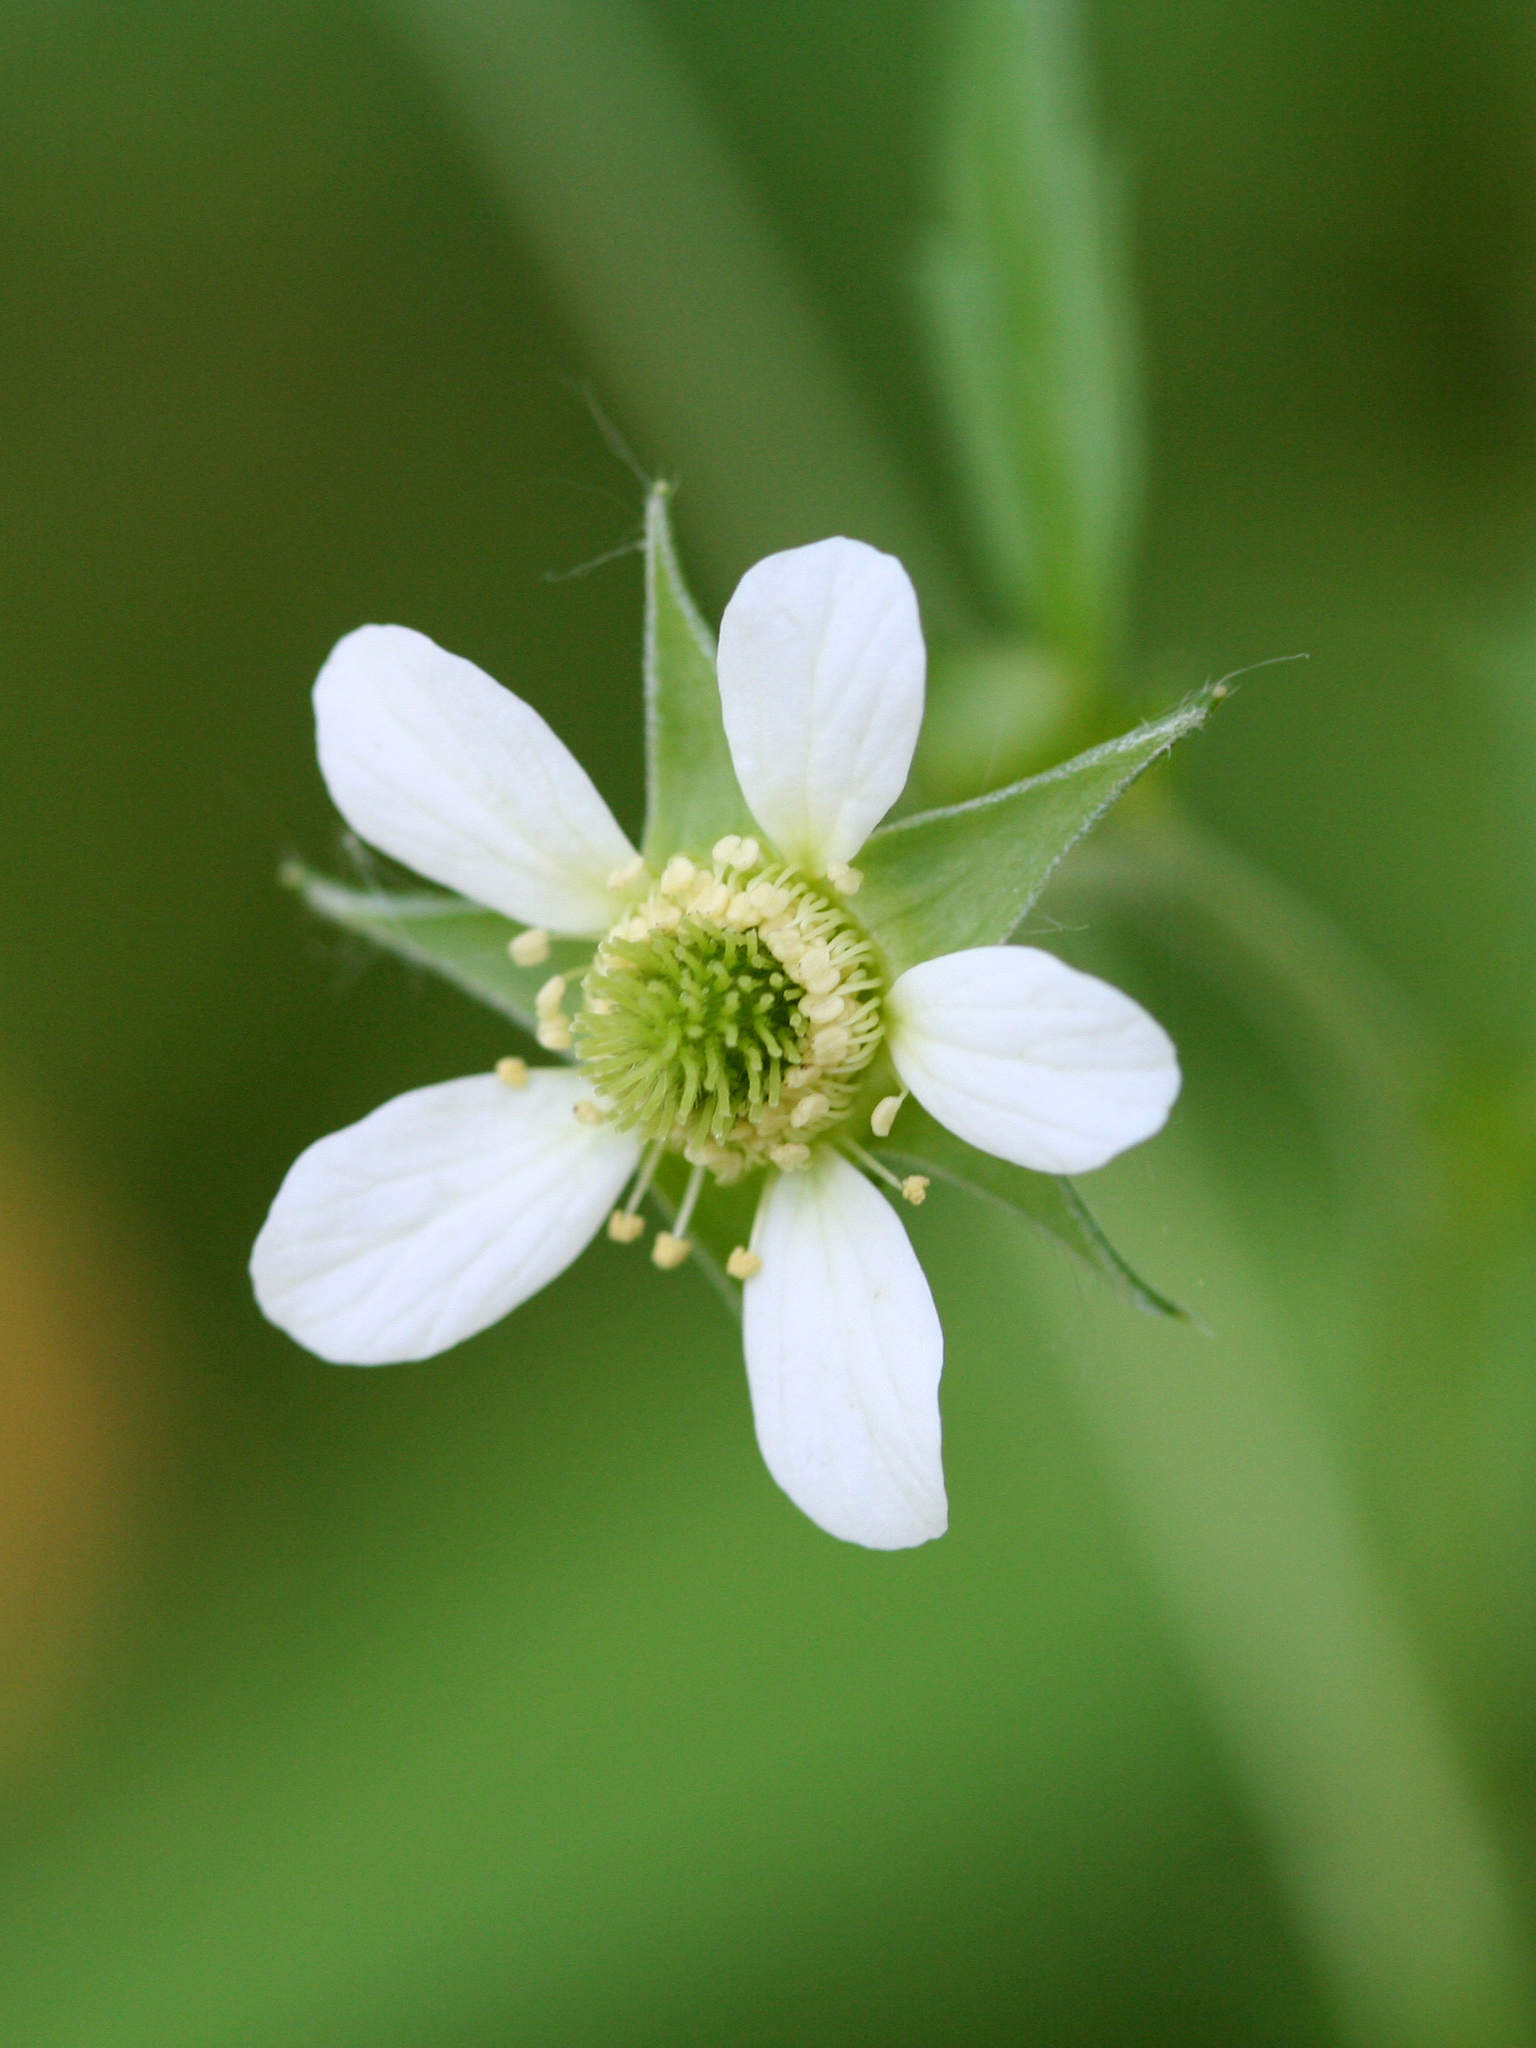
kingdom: Plantae
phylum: Tracheophyta
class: Magnoliopsida
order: Rosales
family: Rosaceae
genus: Geum
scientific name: Geum canadense
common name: White avens
